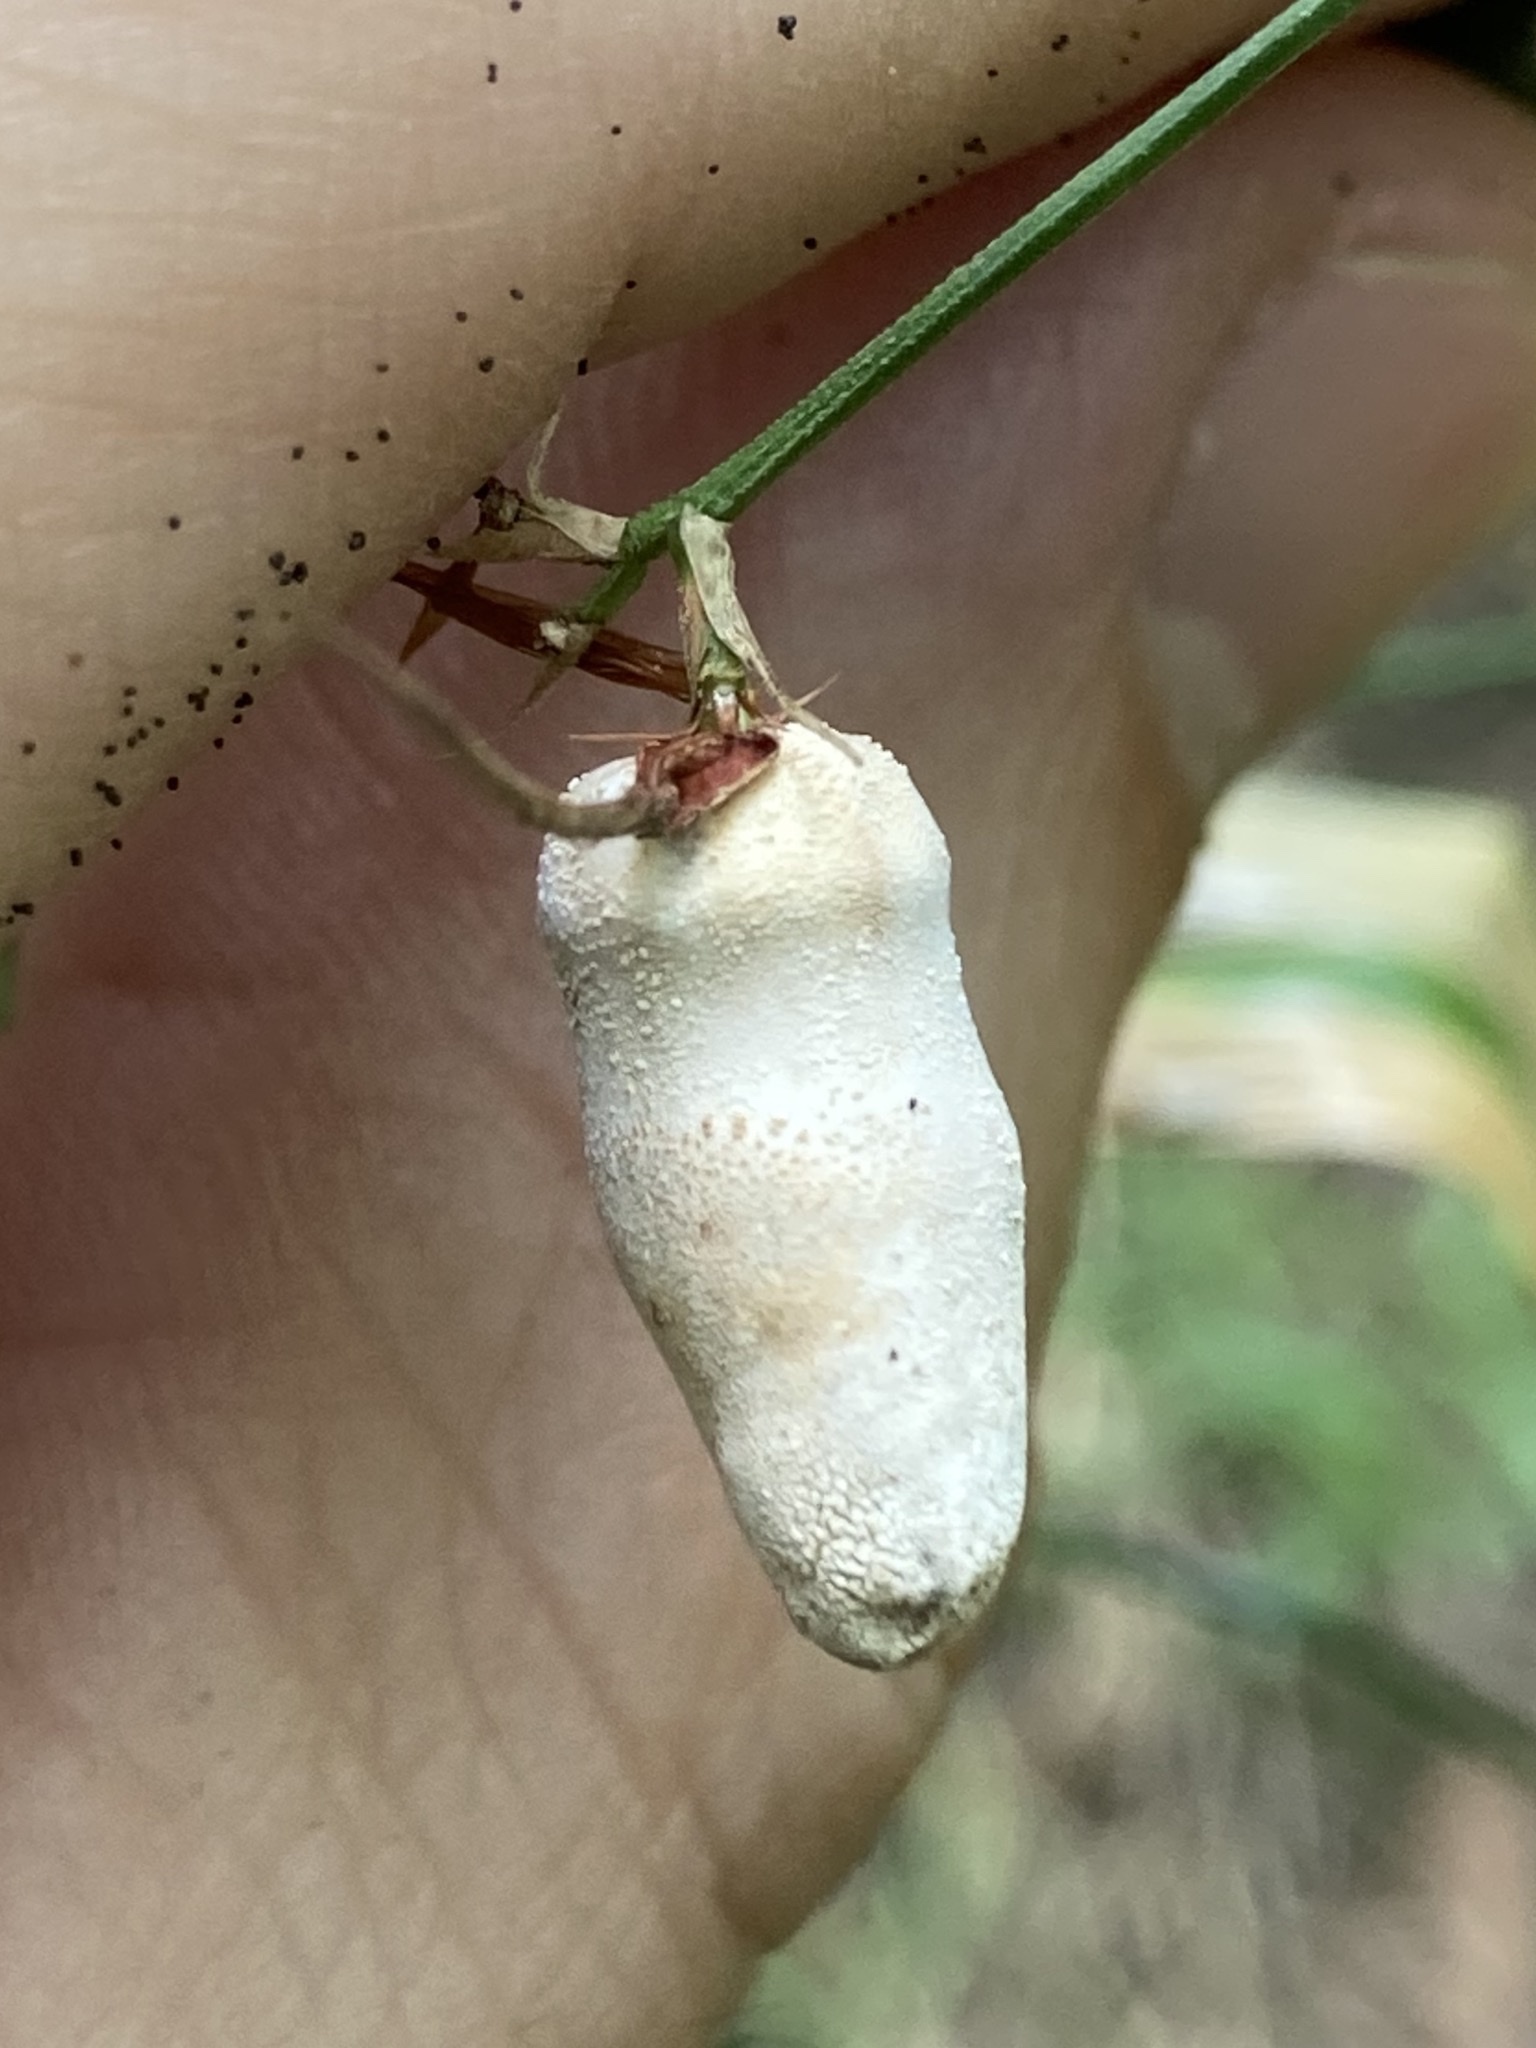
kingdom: Fungi
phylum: Basidiomycota
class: Ustilaginomycetes
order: Ustilaginales
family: Anthracoideaceae
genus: Testicularia
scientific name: Testicularia cyperi
